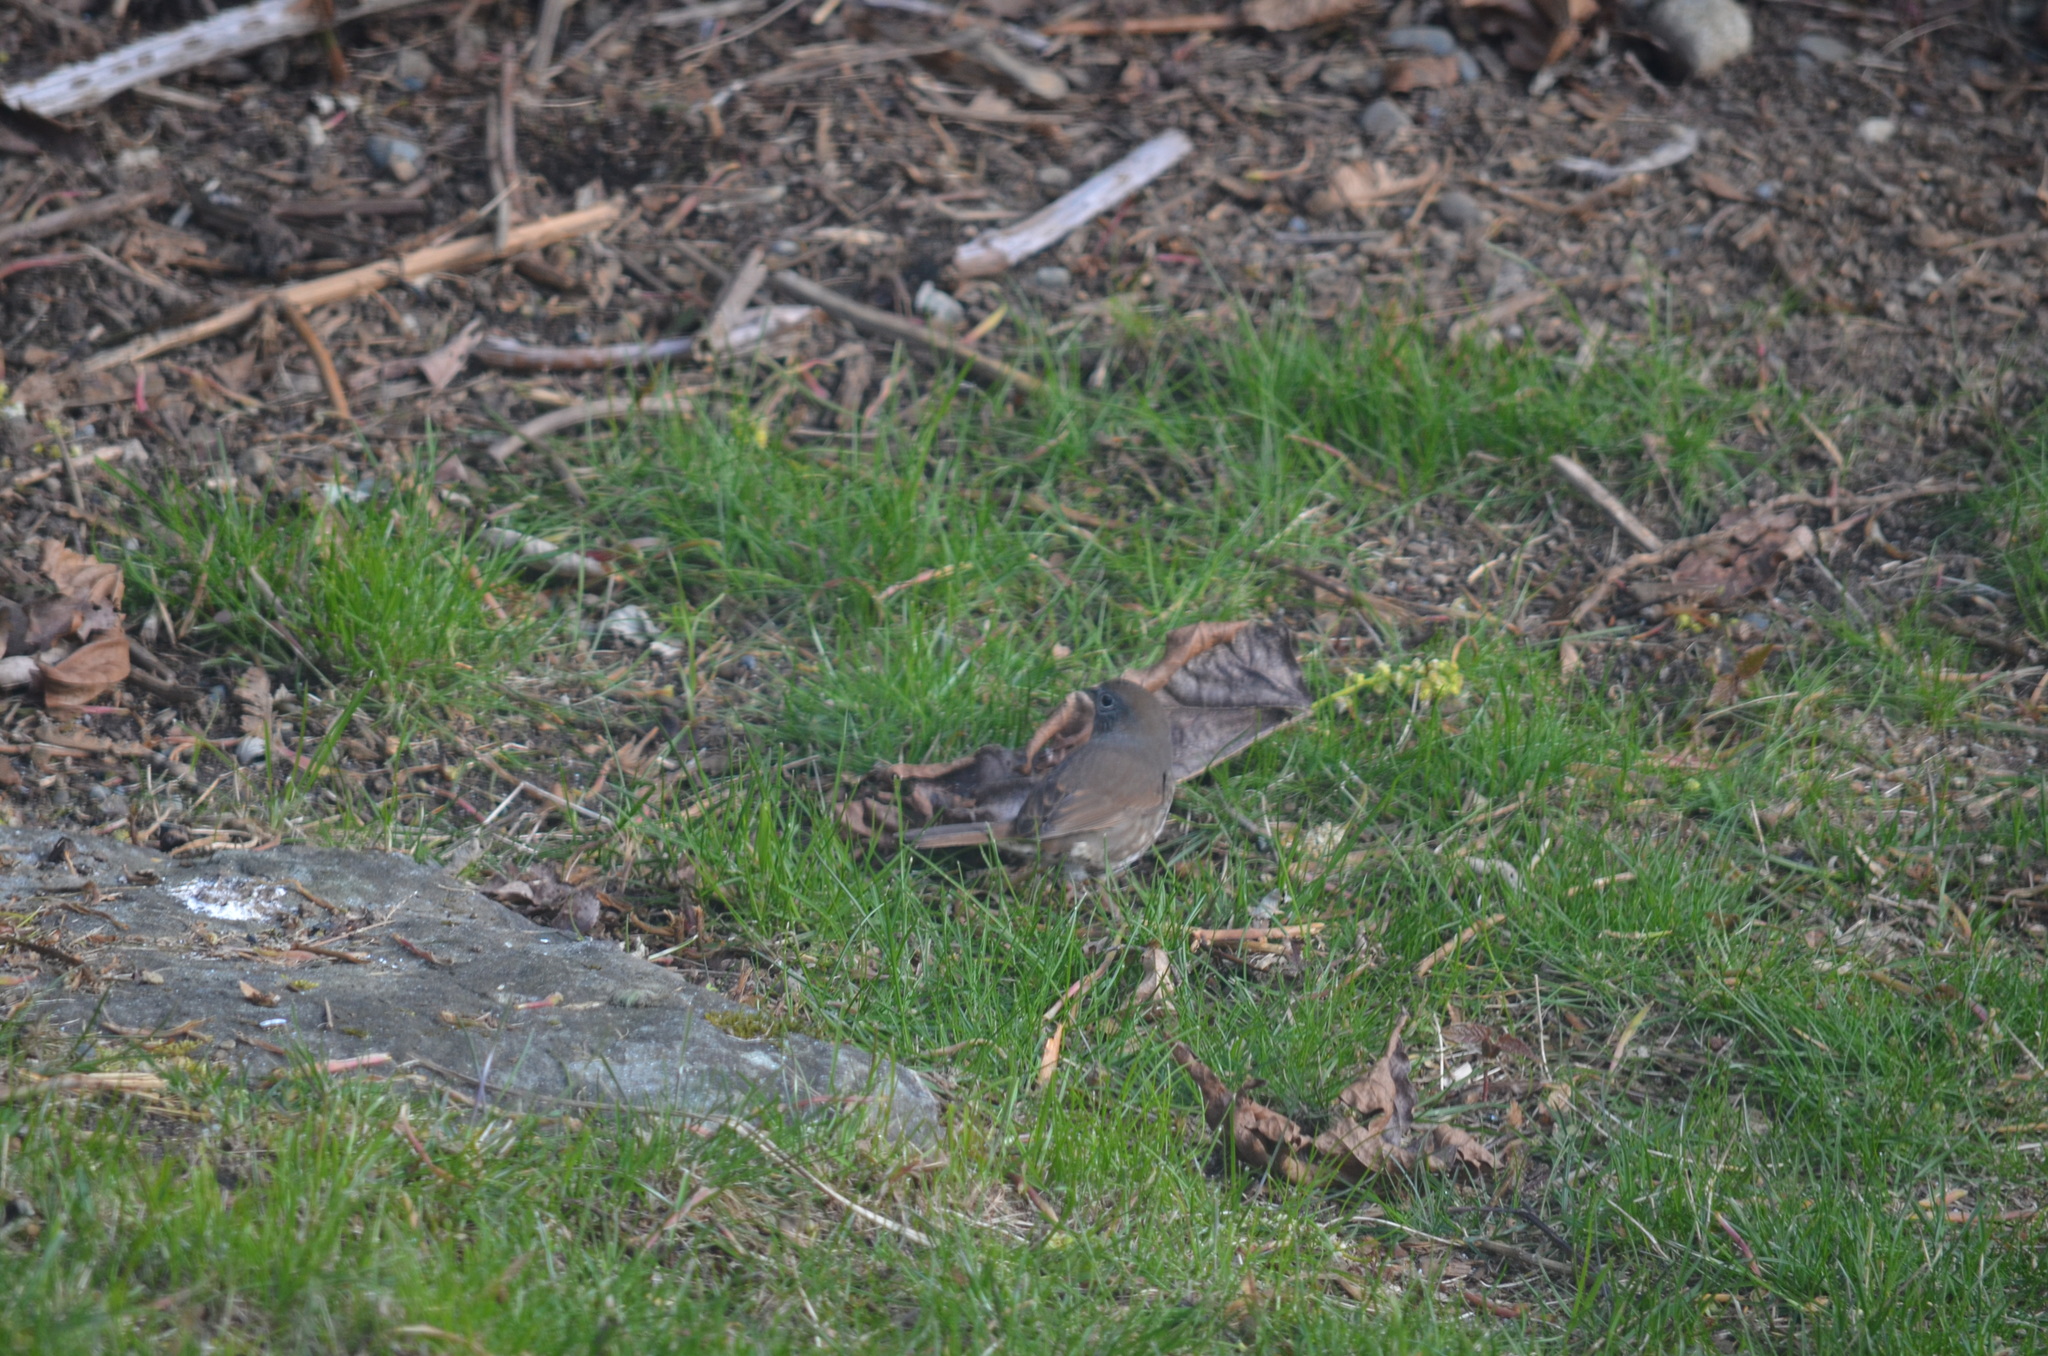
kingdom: Animalia
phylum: Chordata
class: Aves
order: Passeriformes
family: Passerellidae
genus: Passerella
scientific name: Passerella iliaca
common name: Fox sparrow
